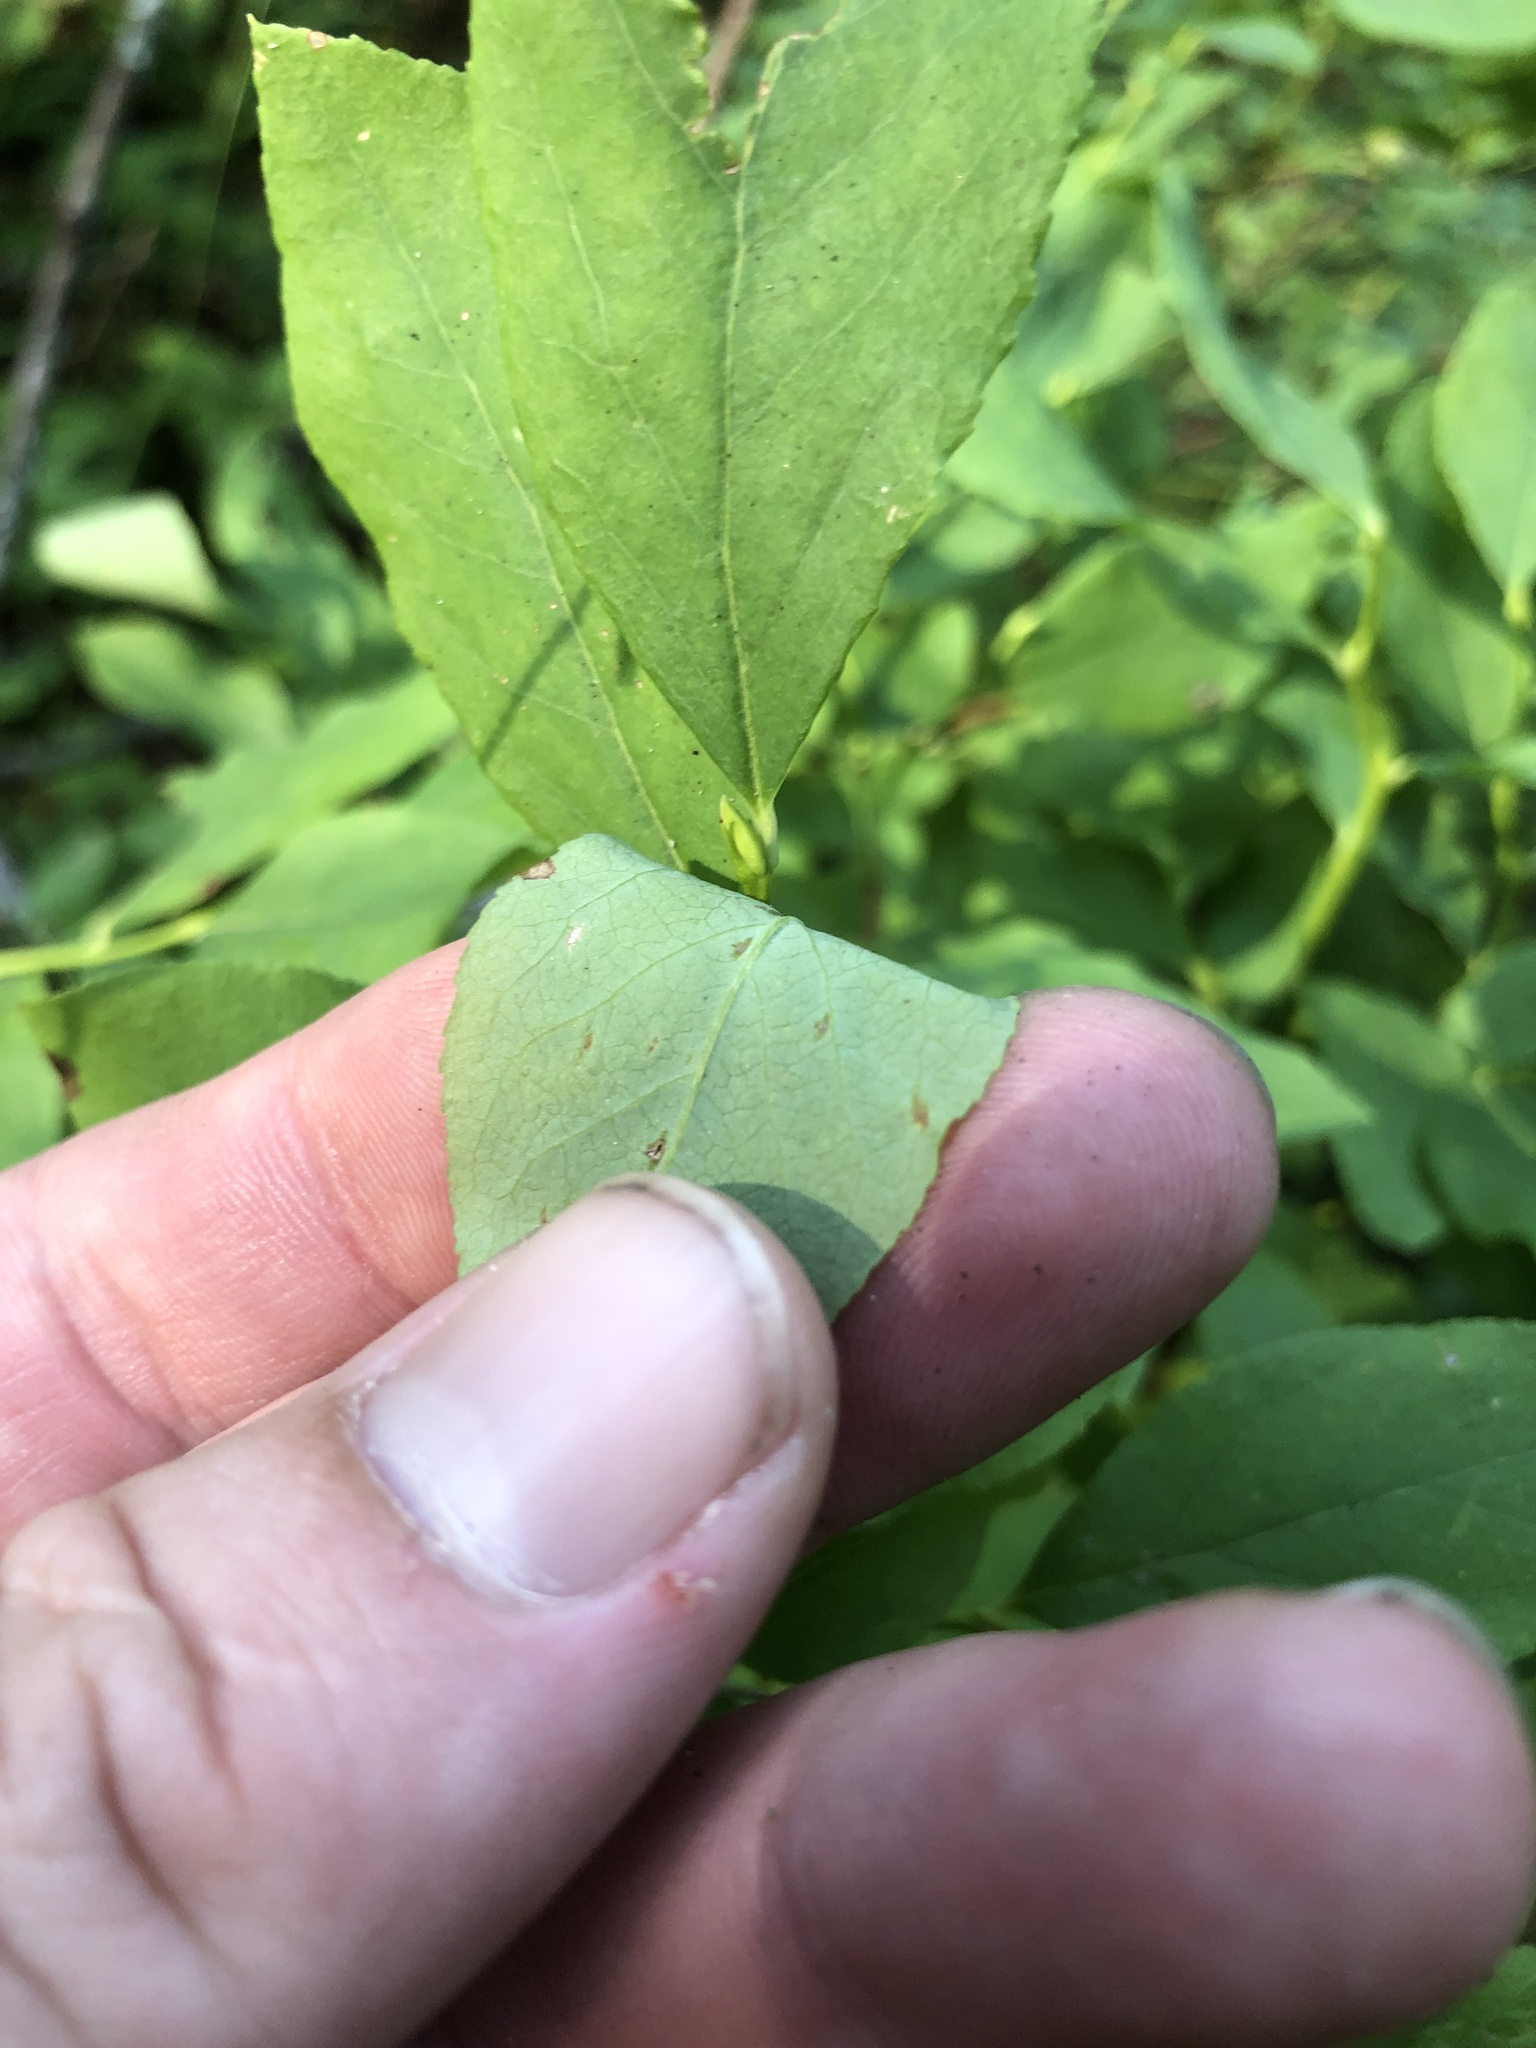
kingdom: Plantae
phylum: Tracheophyta
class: Magnoliopsida
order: Ericales
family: Ericaceae
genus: Vaccinium
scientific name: Vaccinium membranaceum
